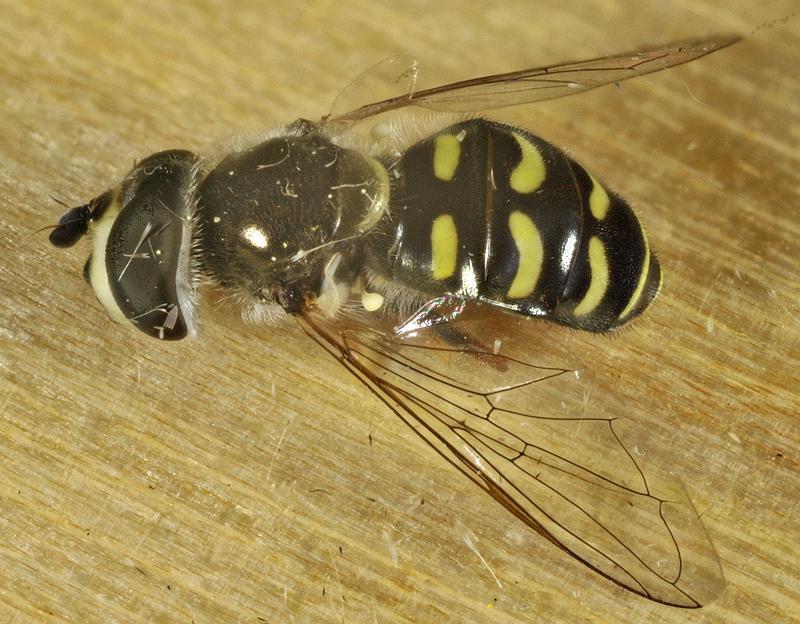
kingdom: Animalia
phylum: Arthropoda
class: Insecta
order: Diptera
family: Syrphidae
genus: Eupeodes
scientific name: Eupeodes volucris
